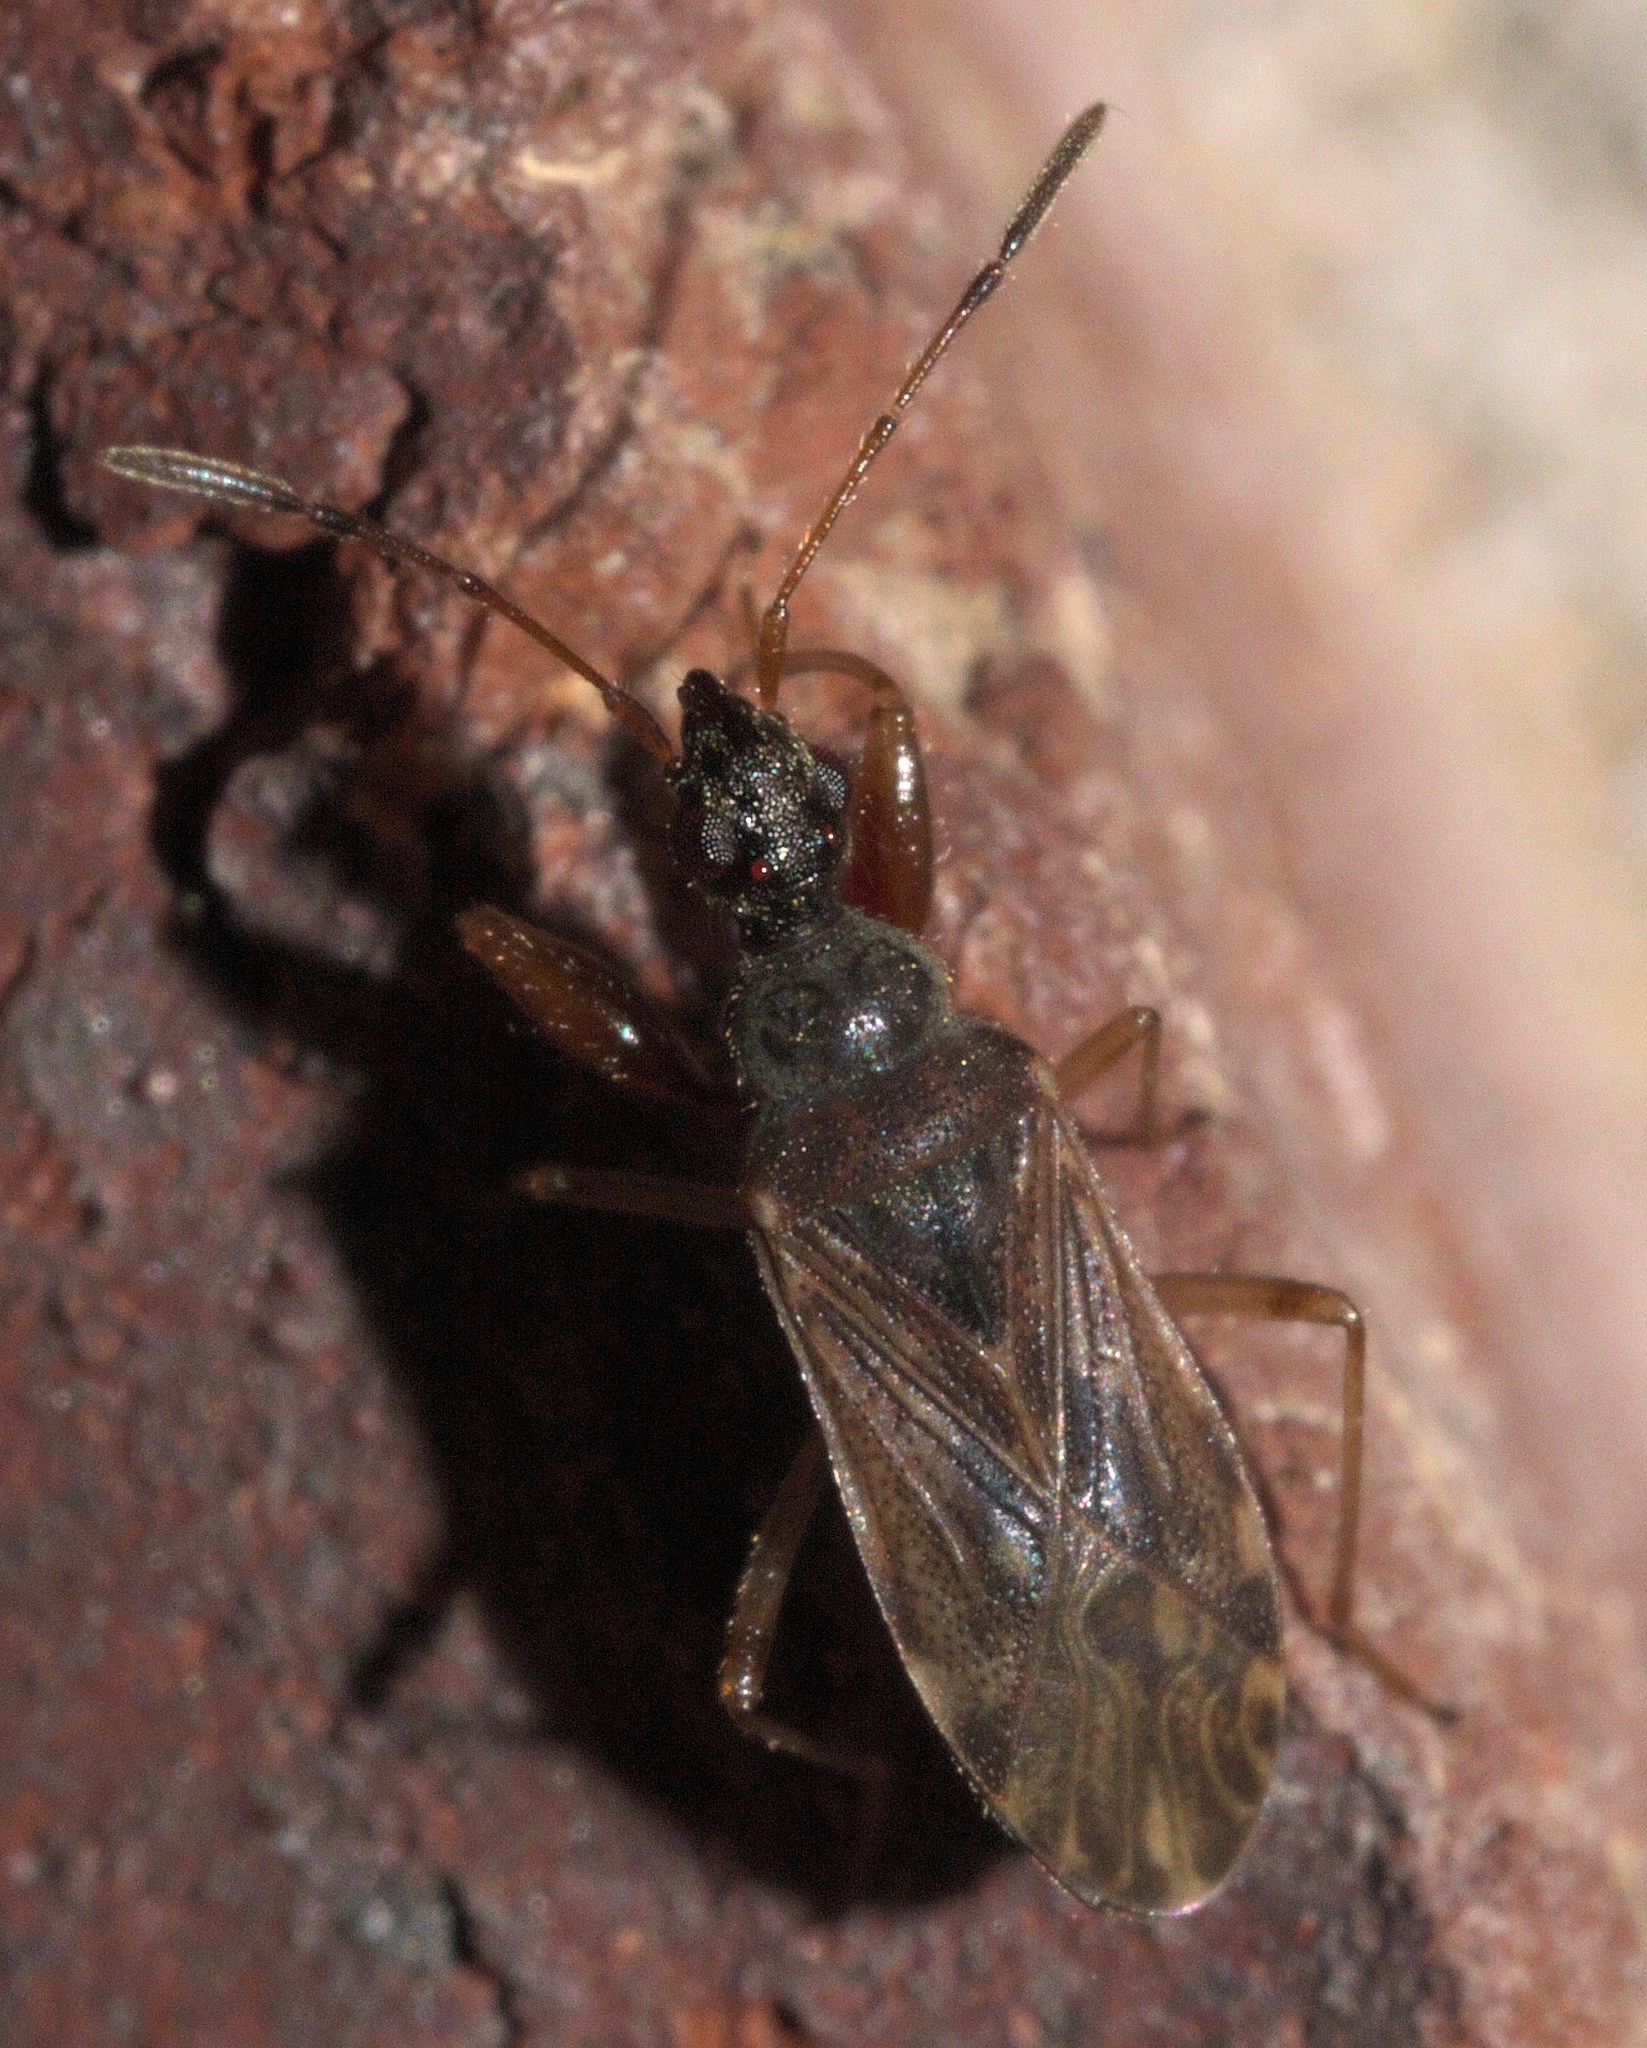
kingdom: Animalia
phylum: Arthropoda
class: Insecta
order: Hemiptera
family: Rhyparochromidae
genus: Heraeus
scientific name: Heraeus plebejus
